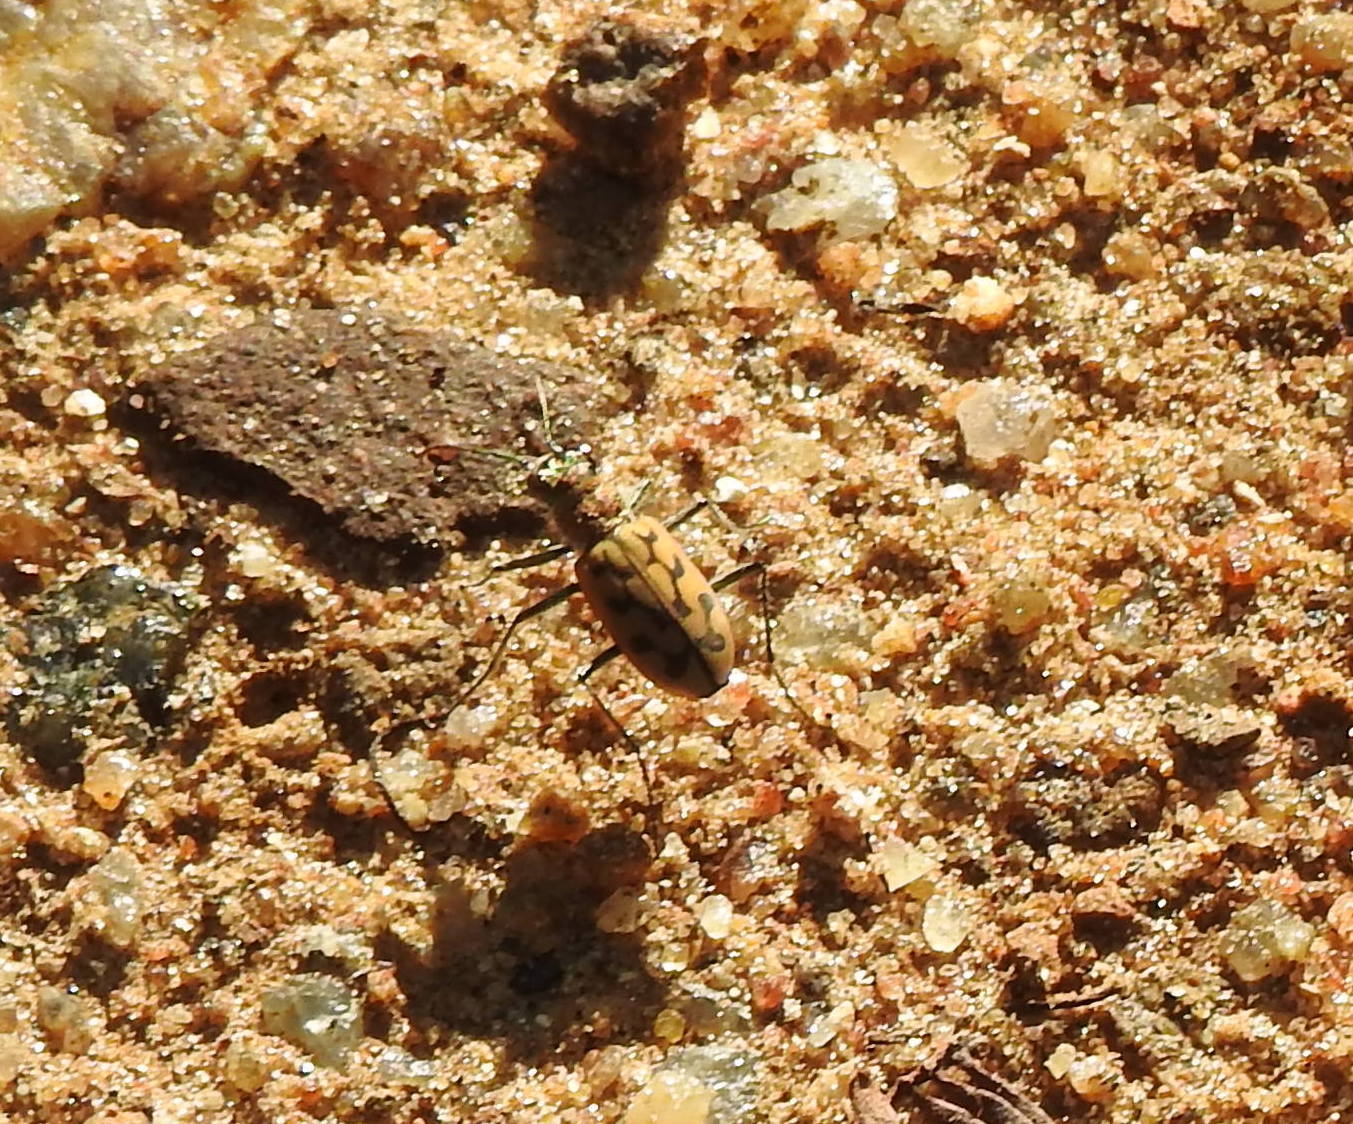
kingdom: Animalia
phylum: Arthropoda
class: Insecta
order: Coleoptera
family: Carabidae
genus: Lophyra
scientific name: Lophyra catena
